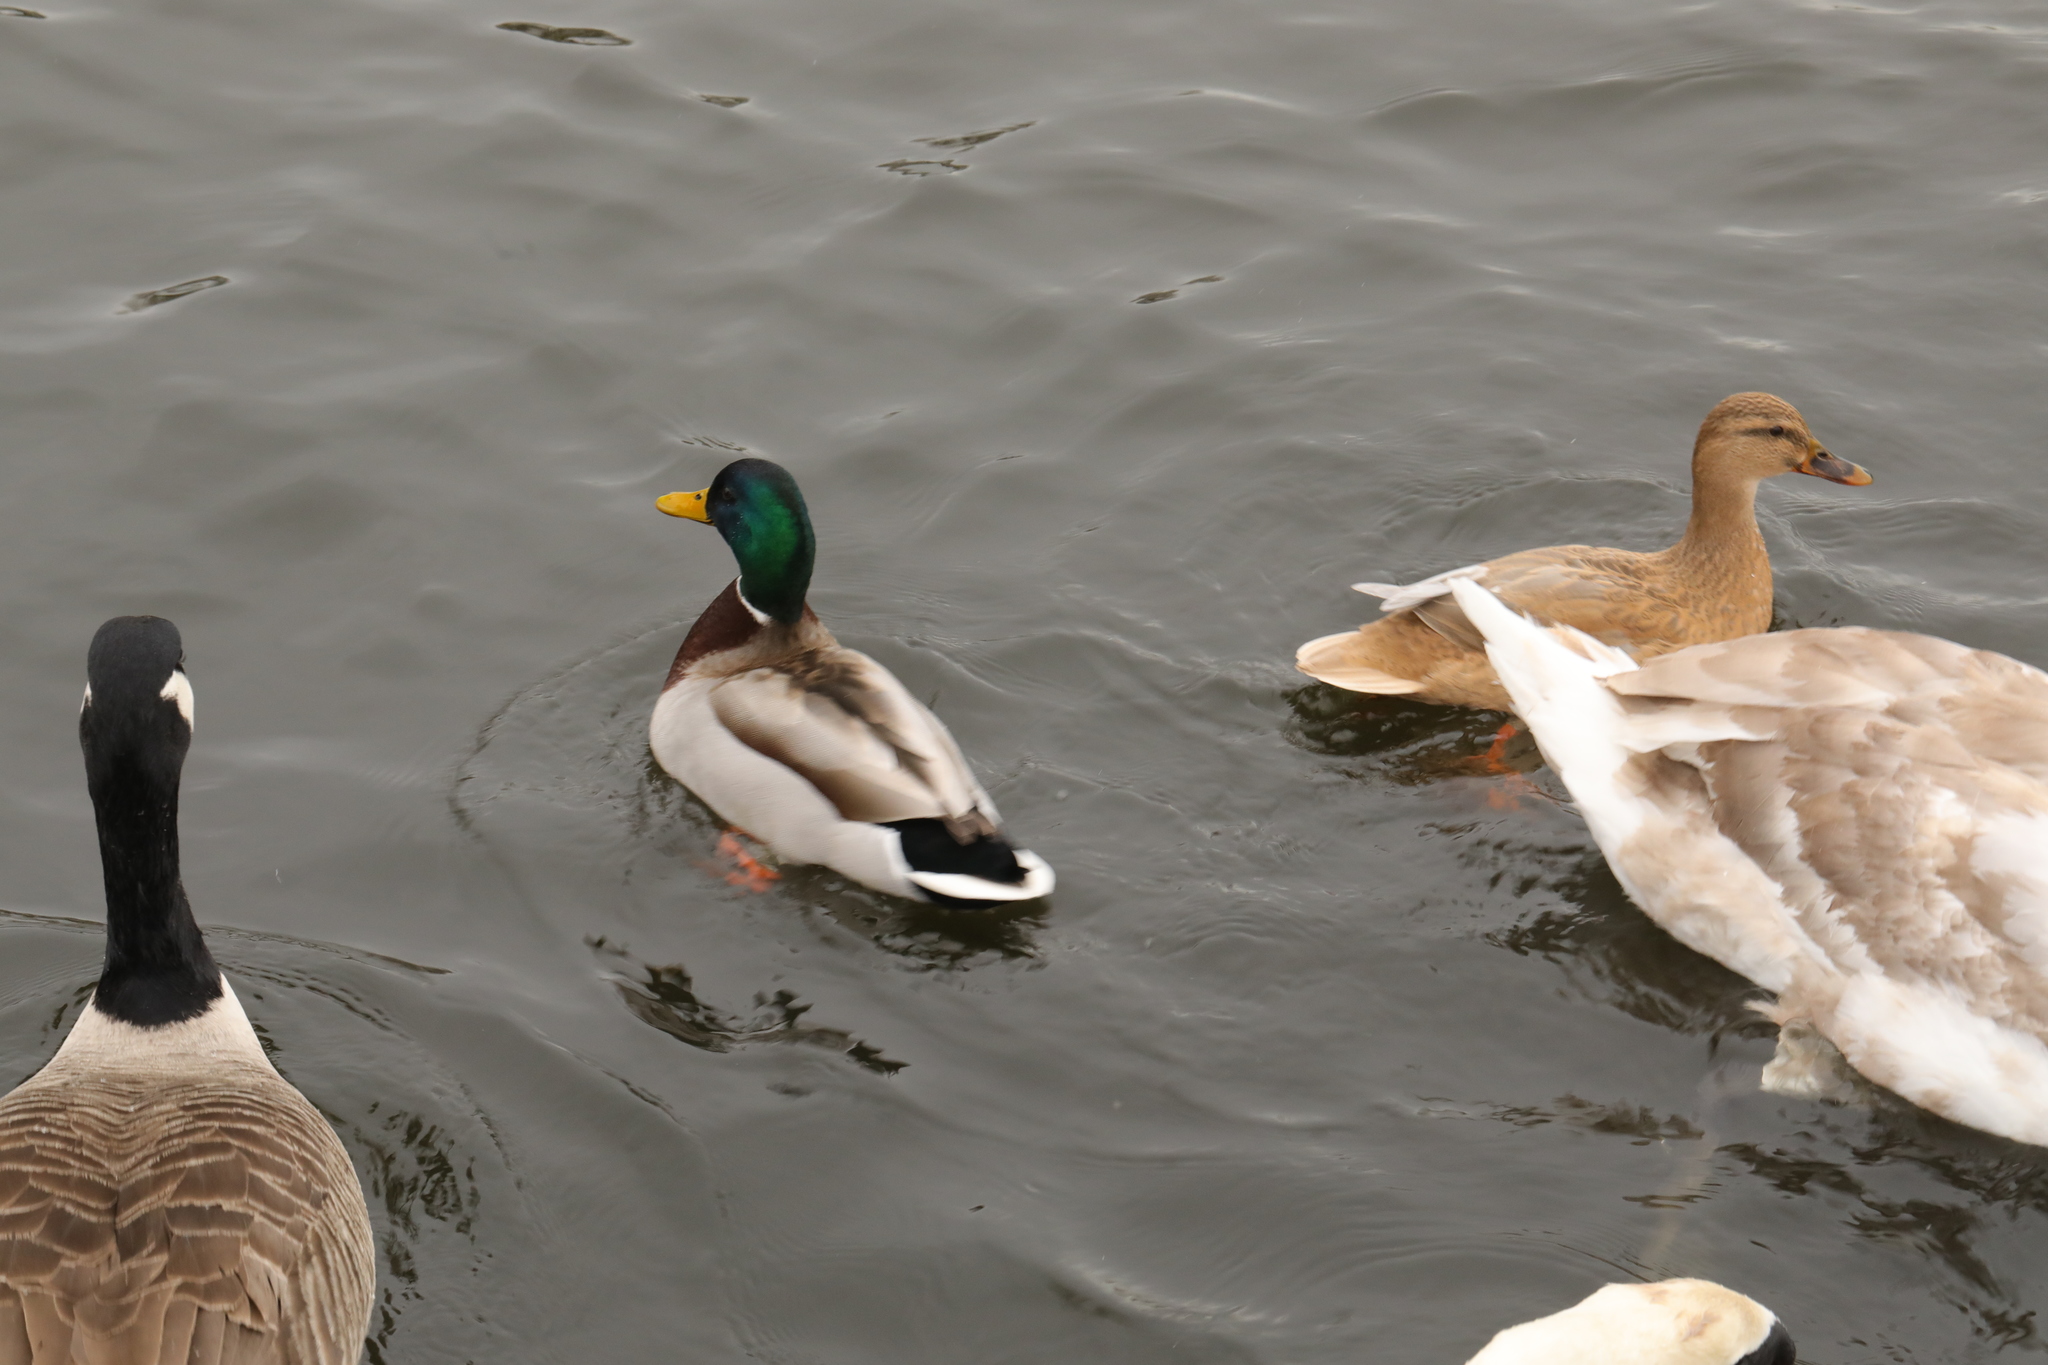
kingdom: Animalia
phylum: Chordata
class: Aves
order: Anseriformes
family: Anatidae
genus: Anas
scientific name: Anas platyrhynchos
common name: Mallard
